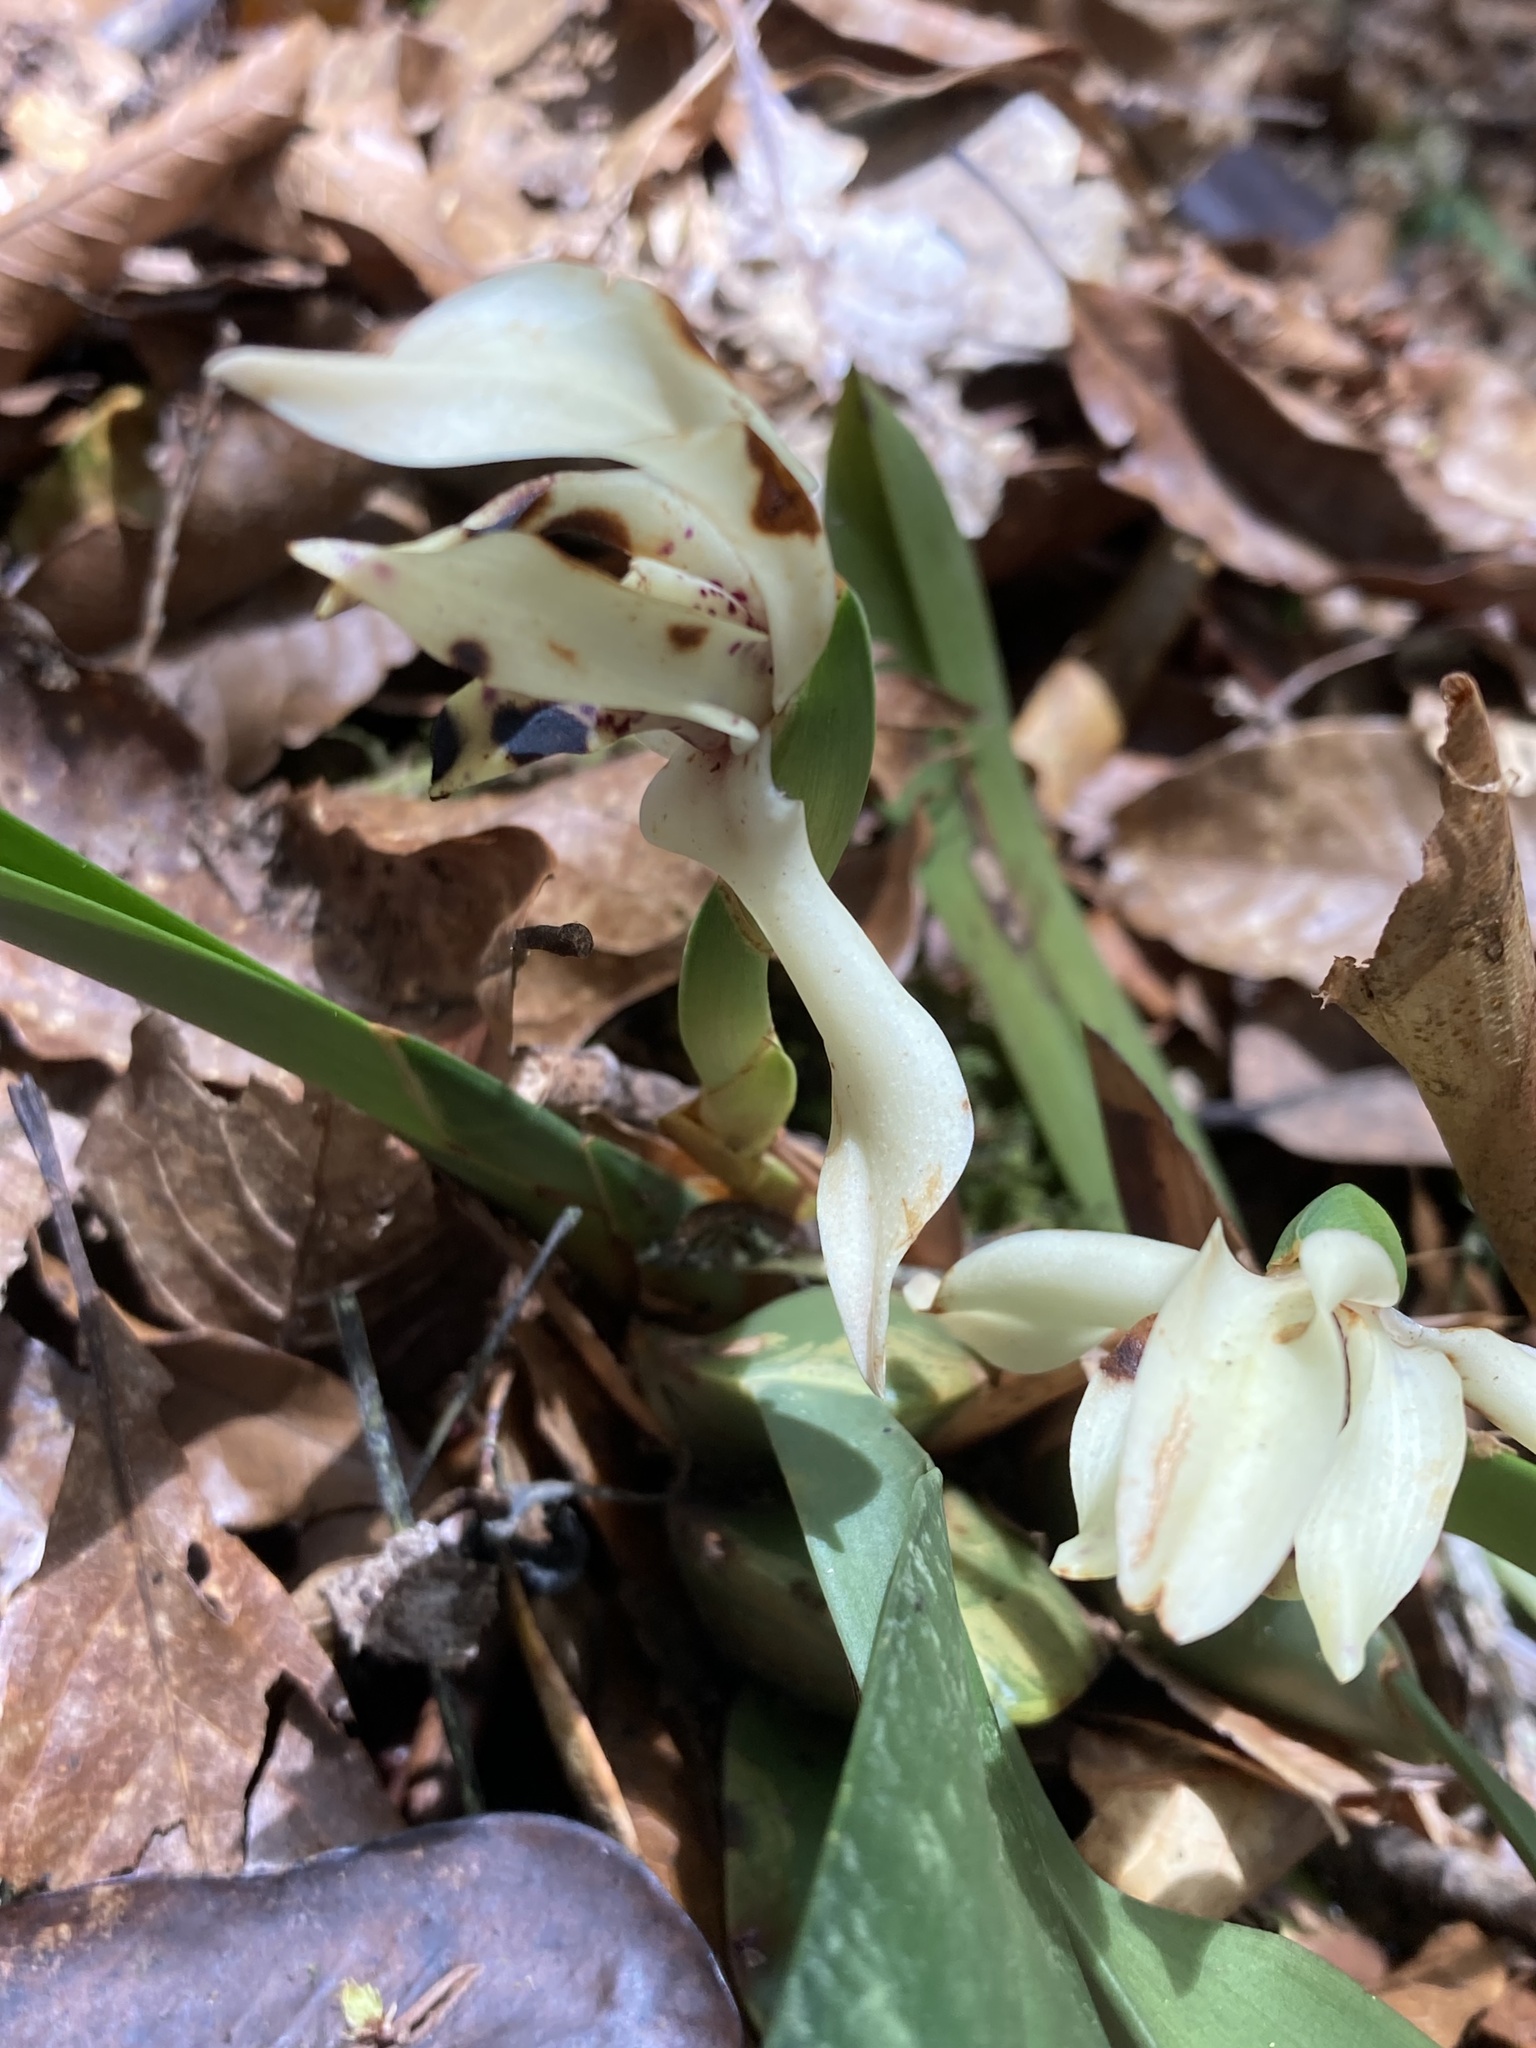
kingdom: Plantae
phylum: Tracheophyta
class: Liliopsida
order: Asparagales
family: Orchidaceae
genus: Maxillaria
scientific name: Maxillaria cedralensis
